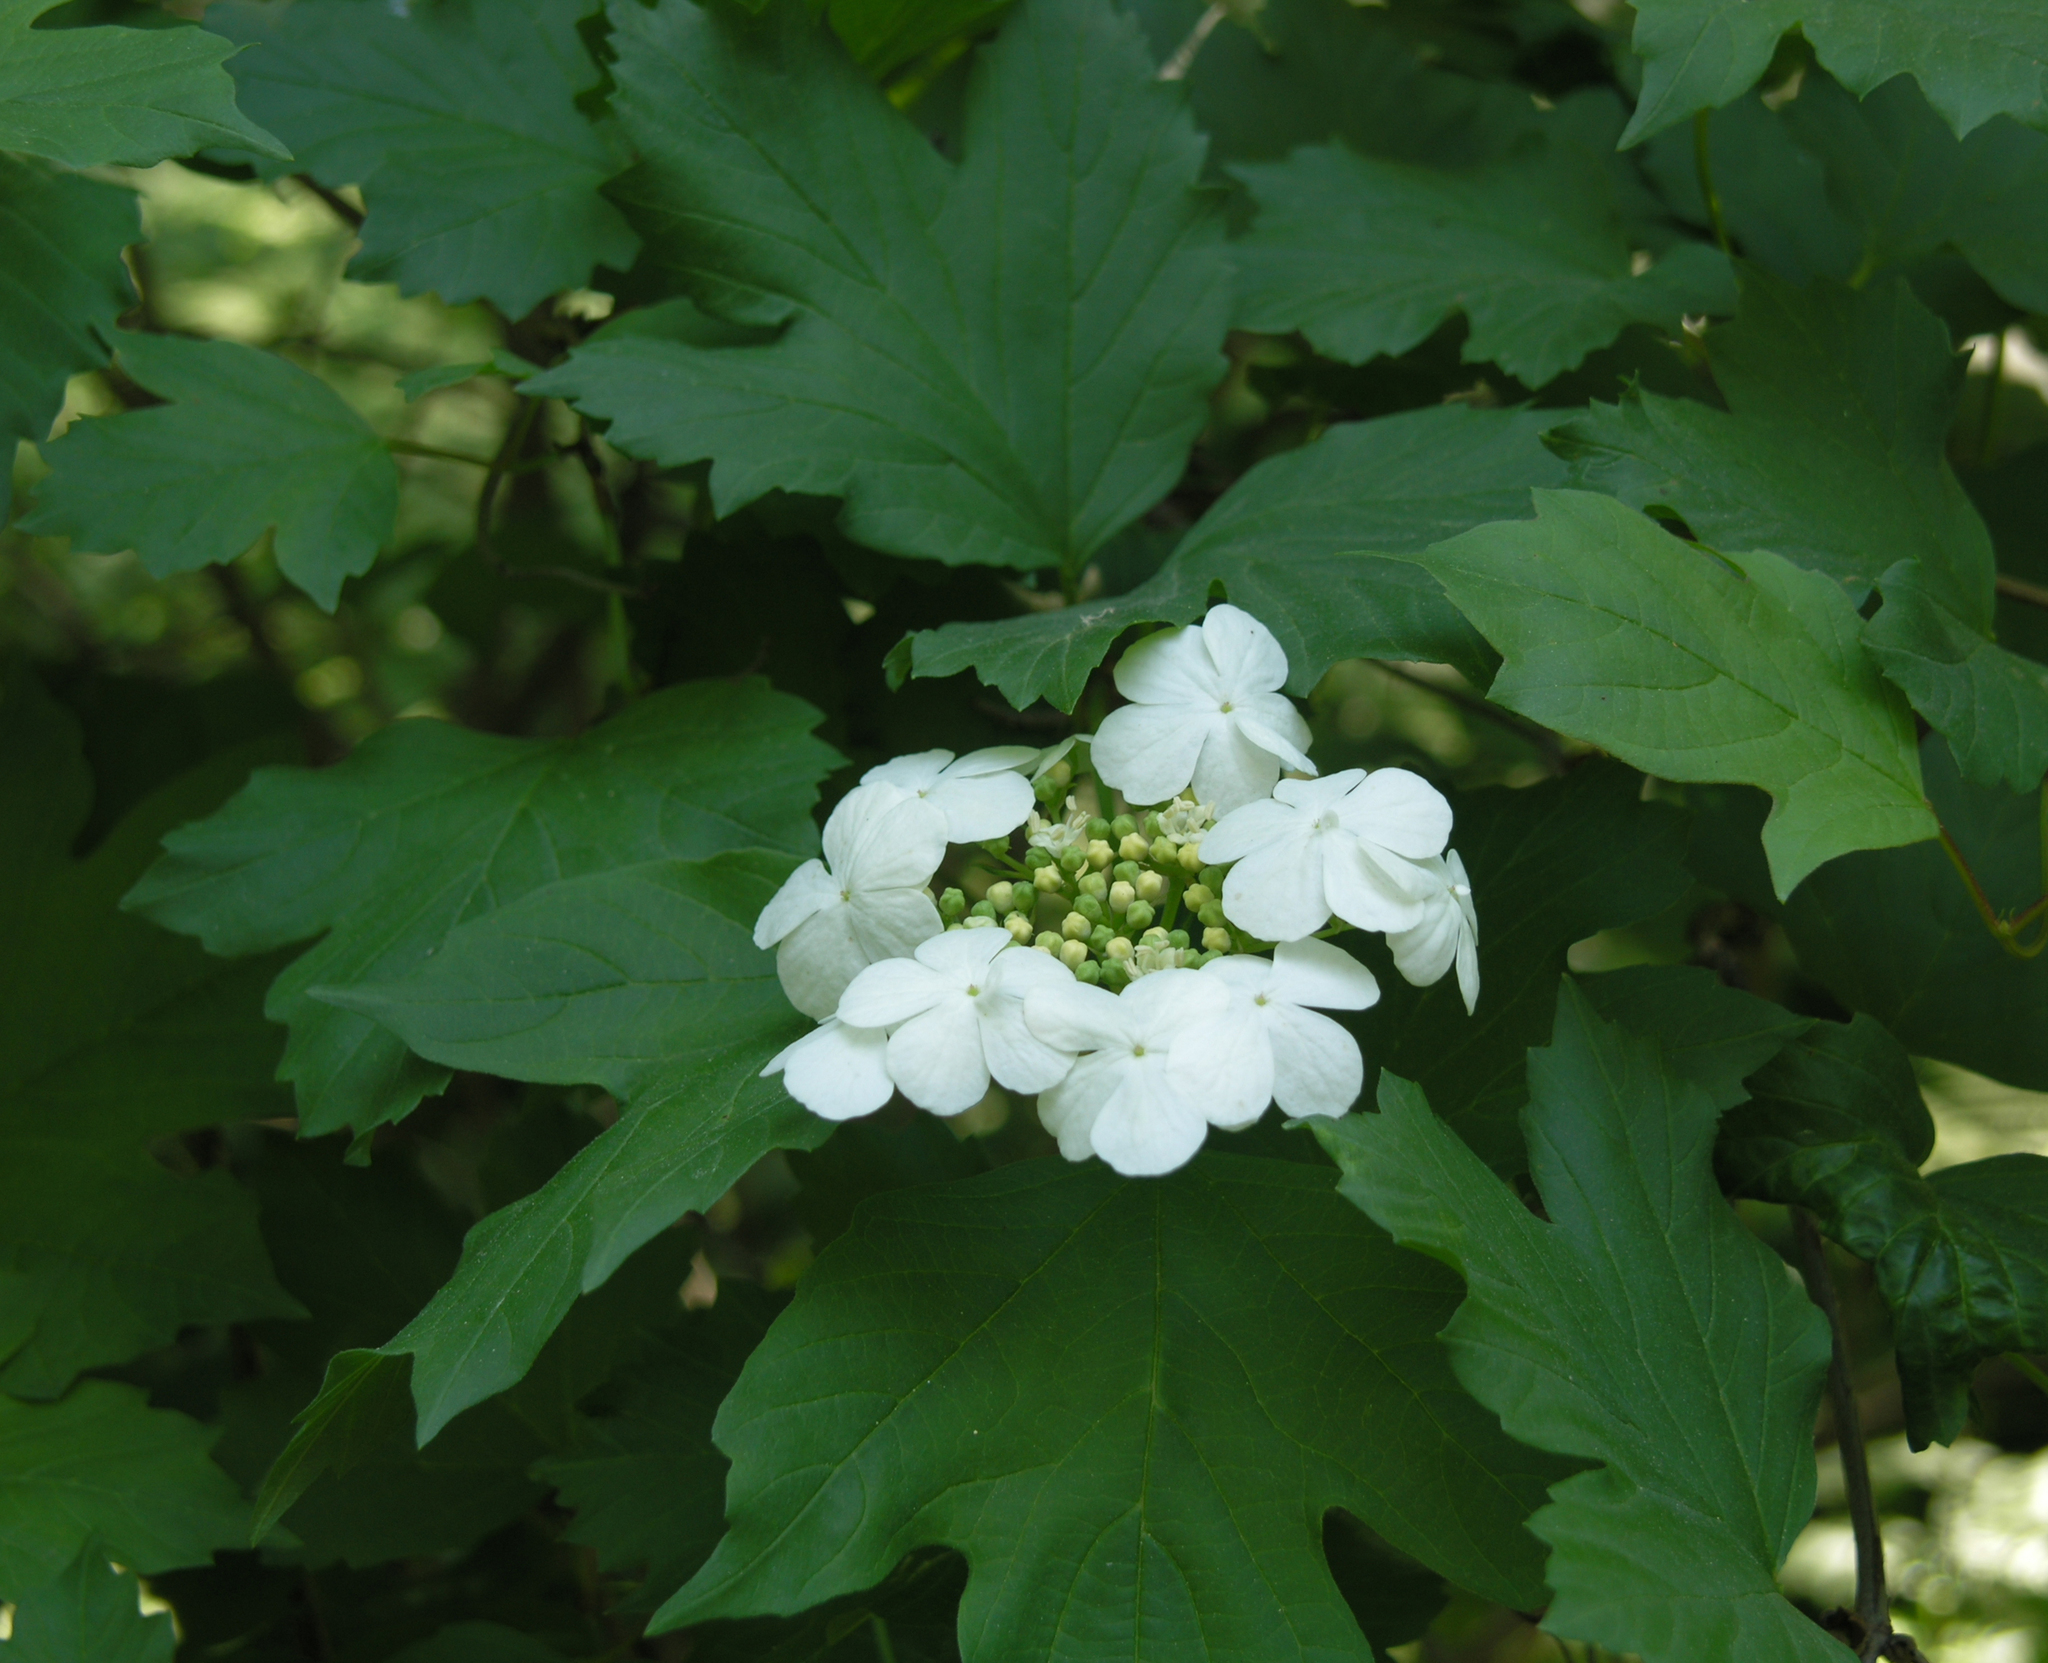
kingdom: Plantae
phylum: Tracheophyta
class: Magnoliopsida
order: Dipsacales
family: Viburnaceae
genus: Viburnum
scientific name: Viburnum opulus
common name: Guelder-rose
